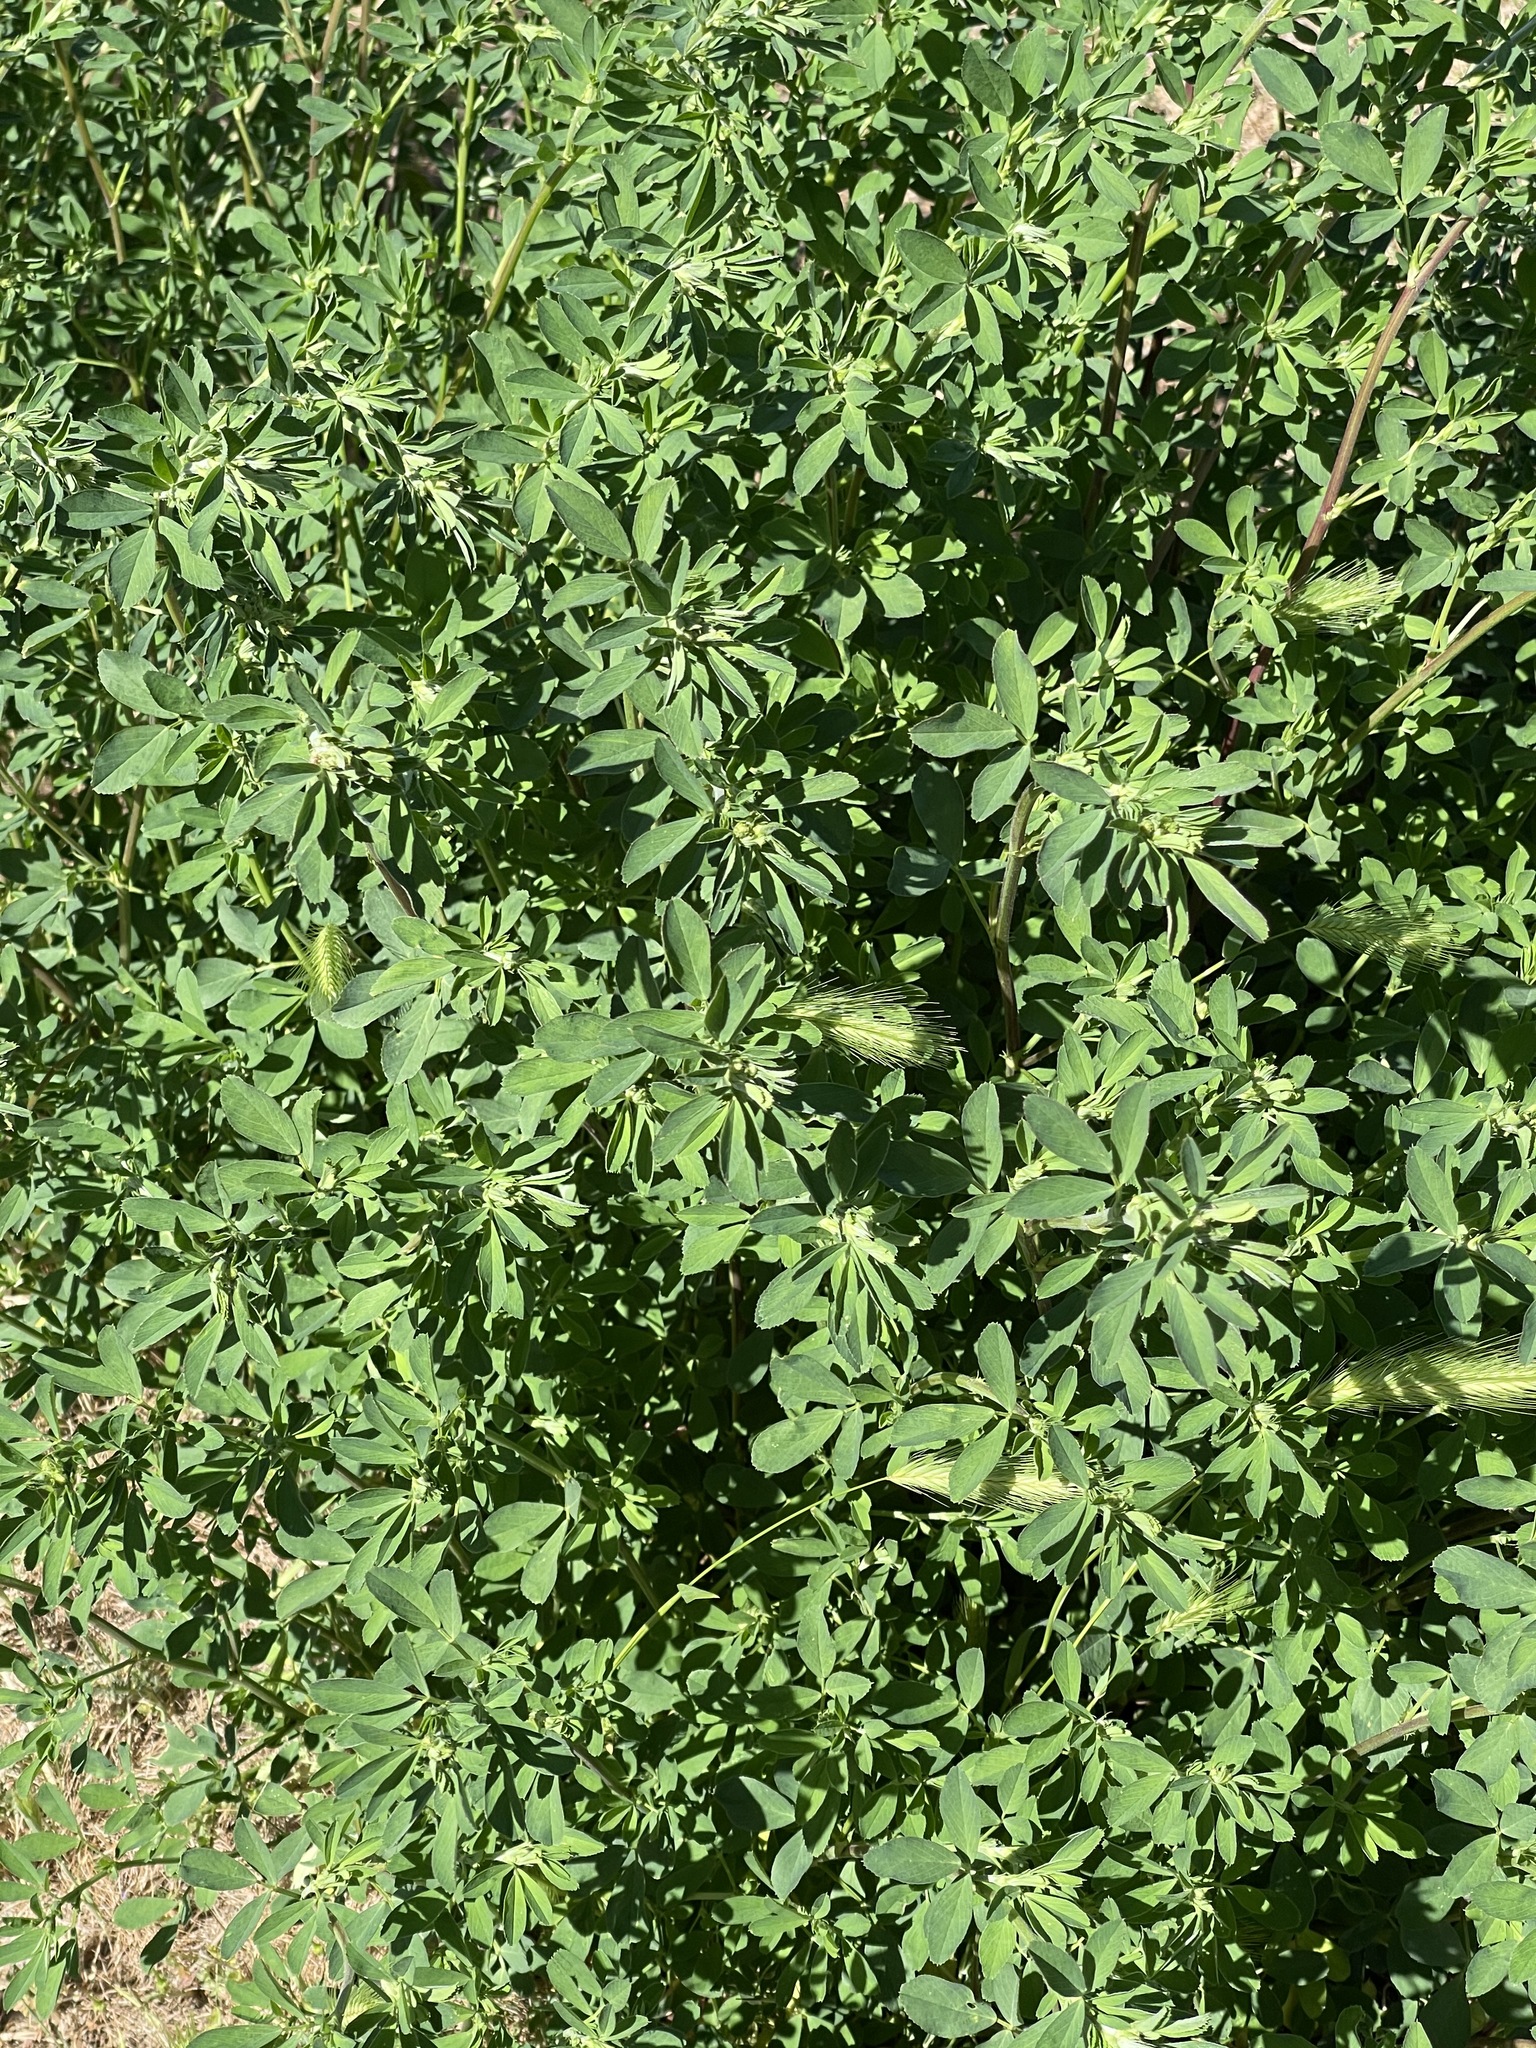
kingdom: Plantae
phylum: Tracheophyta
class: Magnoliopsida
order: Fabales
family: Fabaceae
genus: Medicago
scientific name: Medicago sativa
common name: Alfalfa
